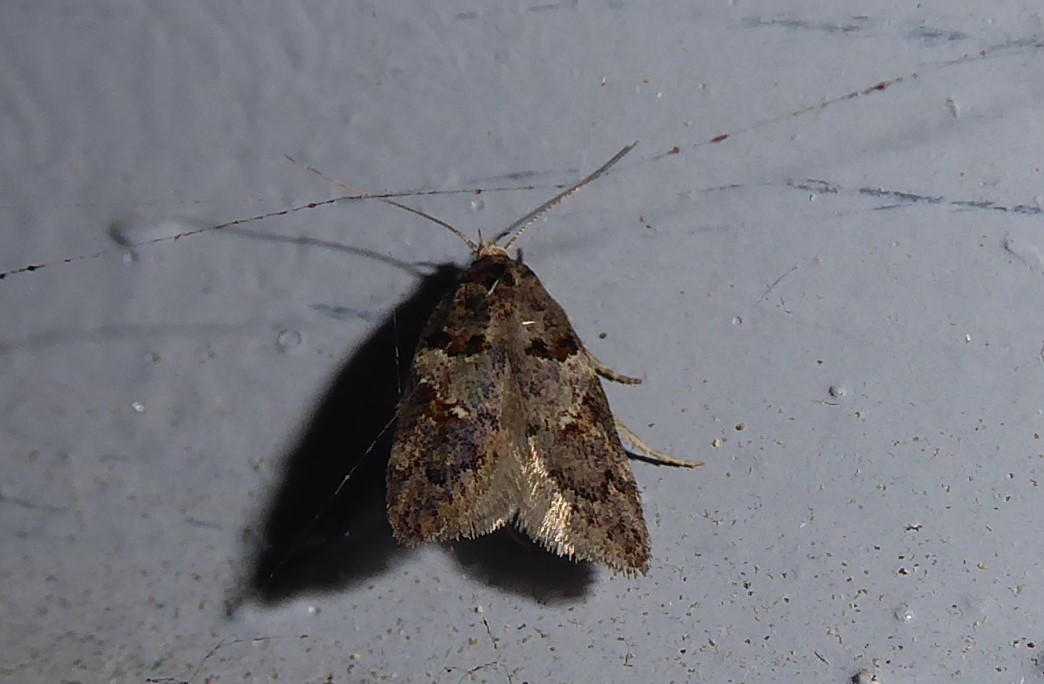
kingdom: Animalia
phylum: Arthropoda
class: Insecta
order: Lepidoptera
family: Oecophoridae
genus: Trachypepla
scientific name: Trachypepla contritella
